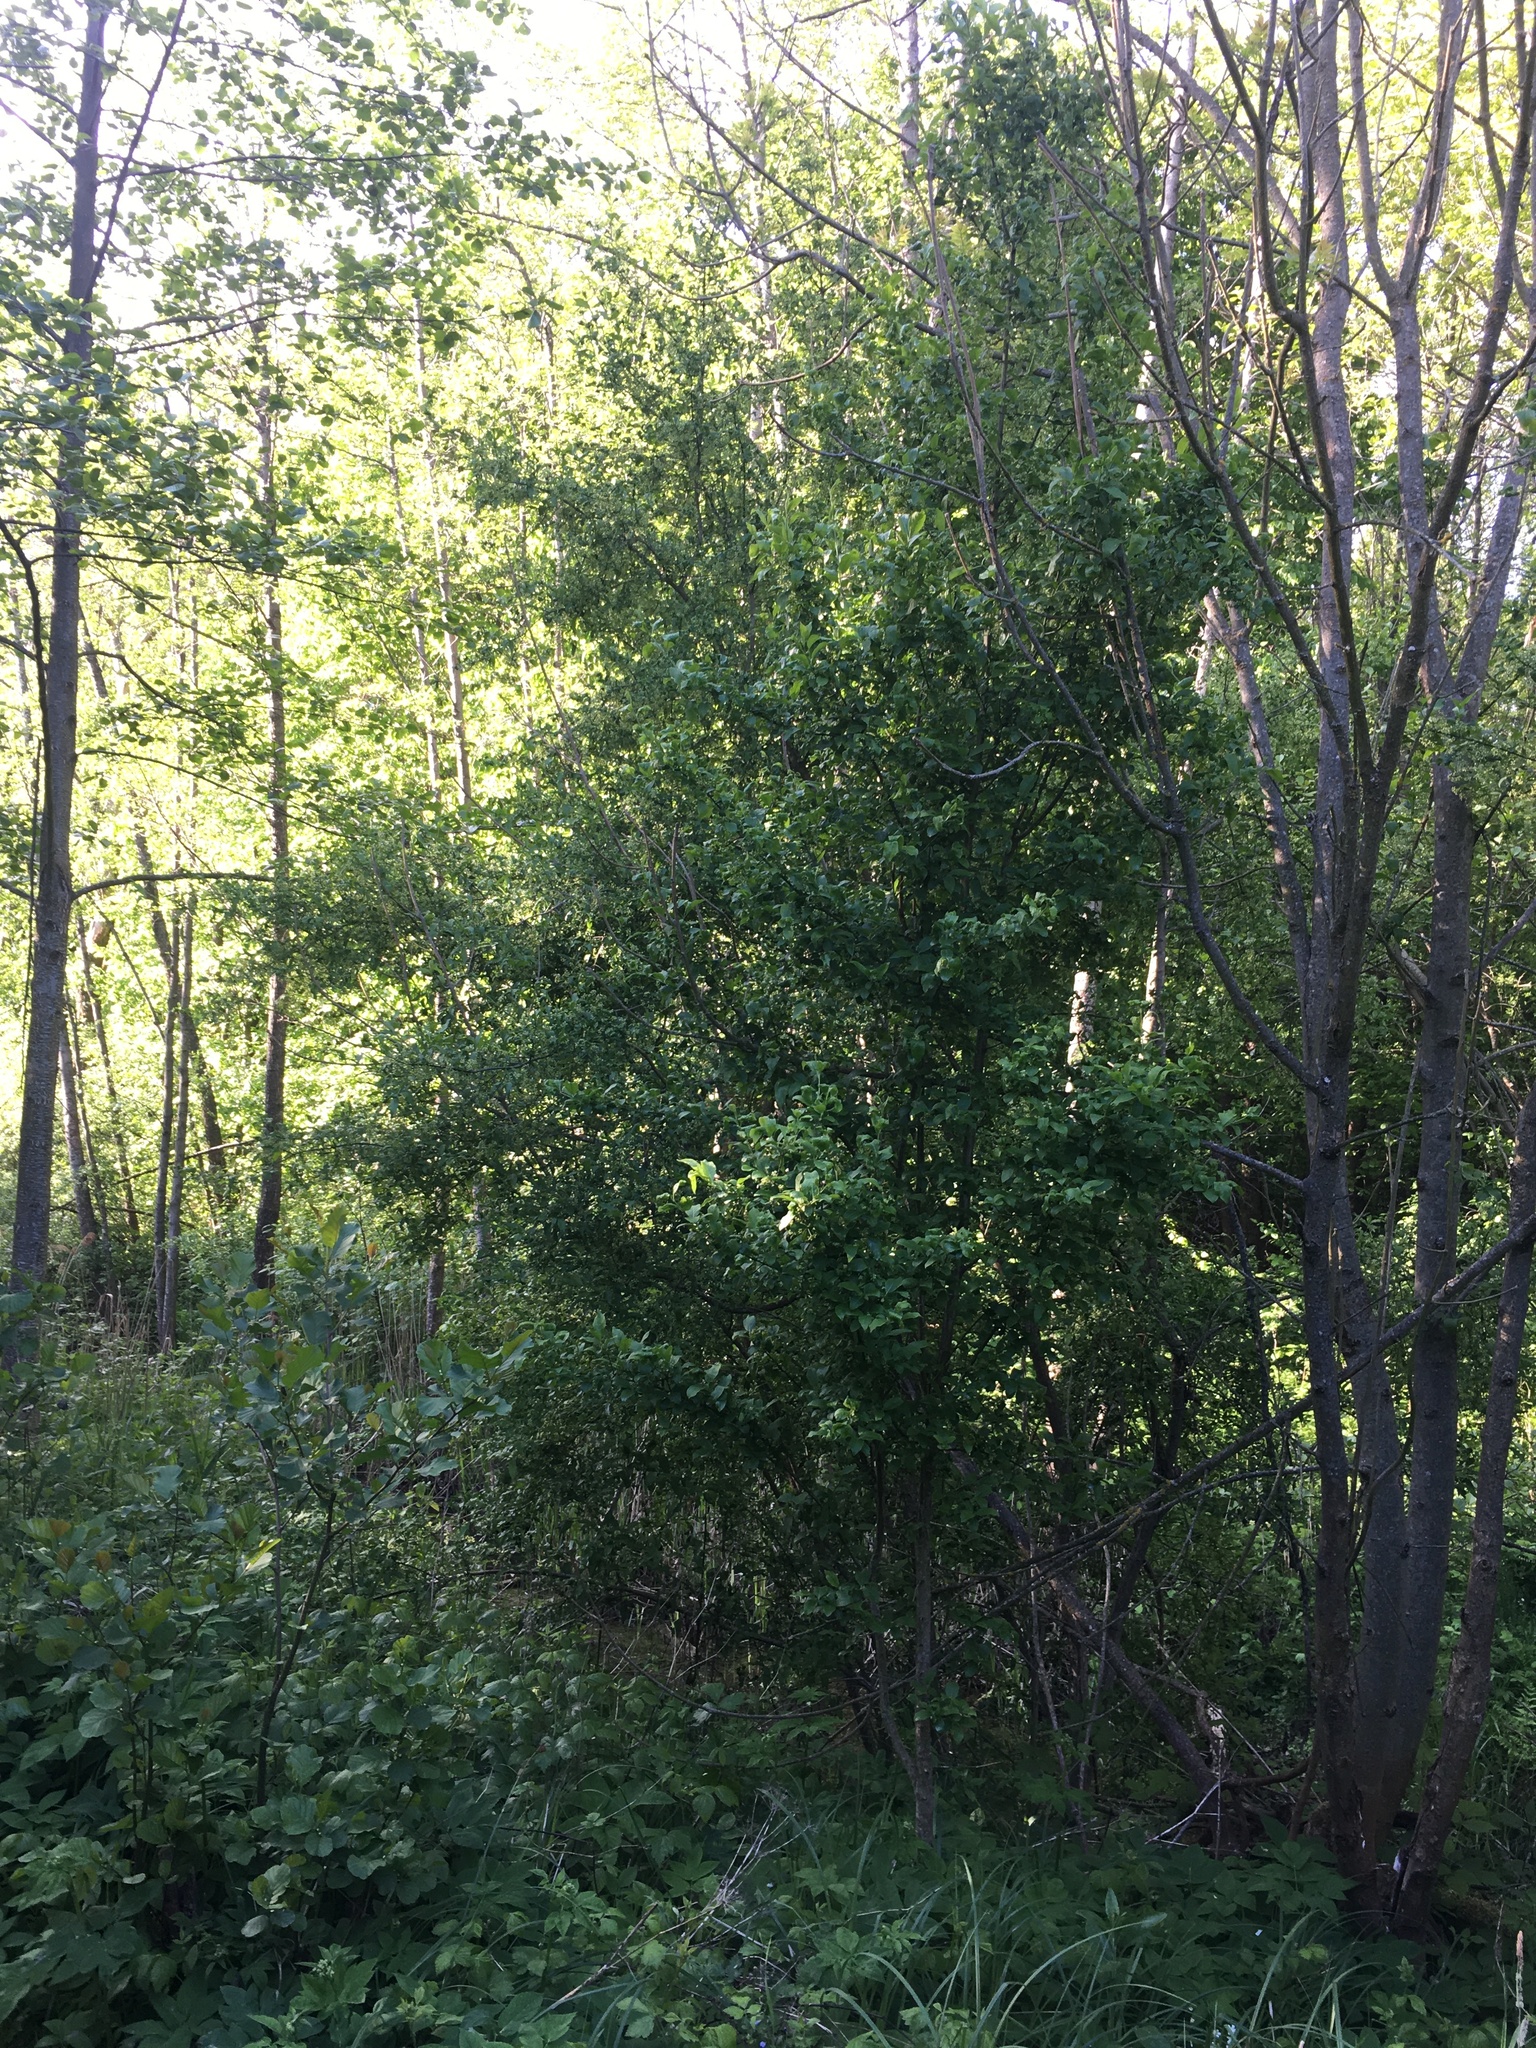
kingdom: Plantae
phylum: Tracheophyta
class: Magnoliopsida
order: Celastrales
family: Celastraceae
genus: Euonymus
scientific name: Euonymus europaeus
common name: Spindle
